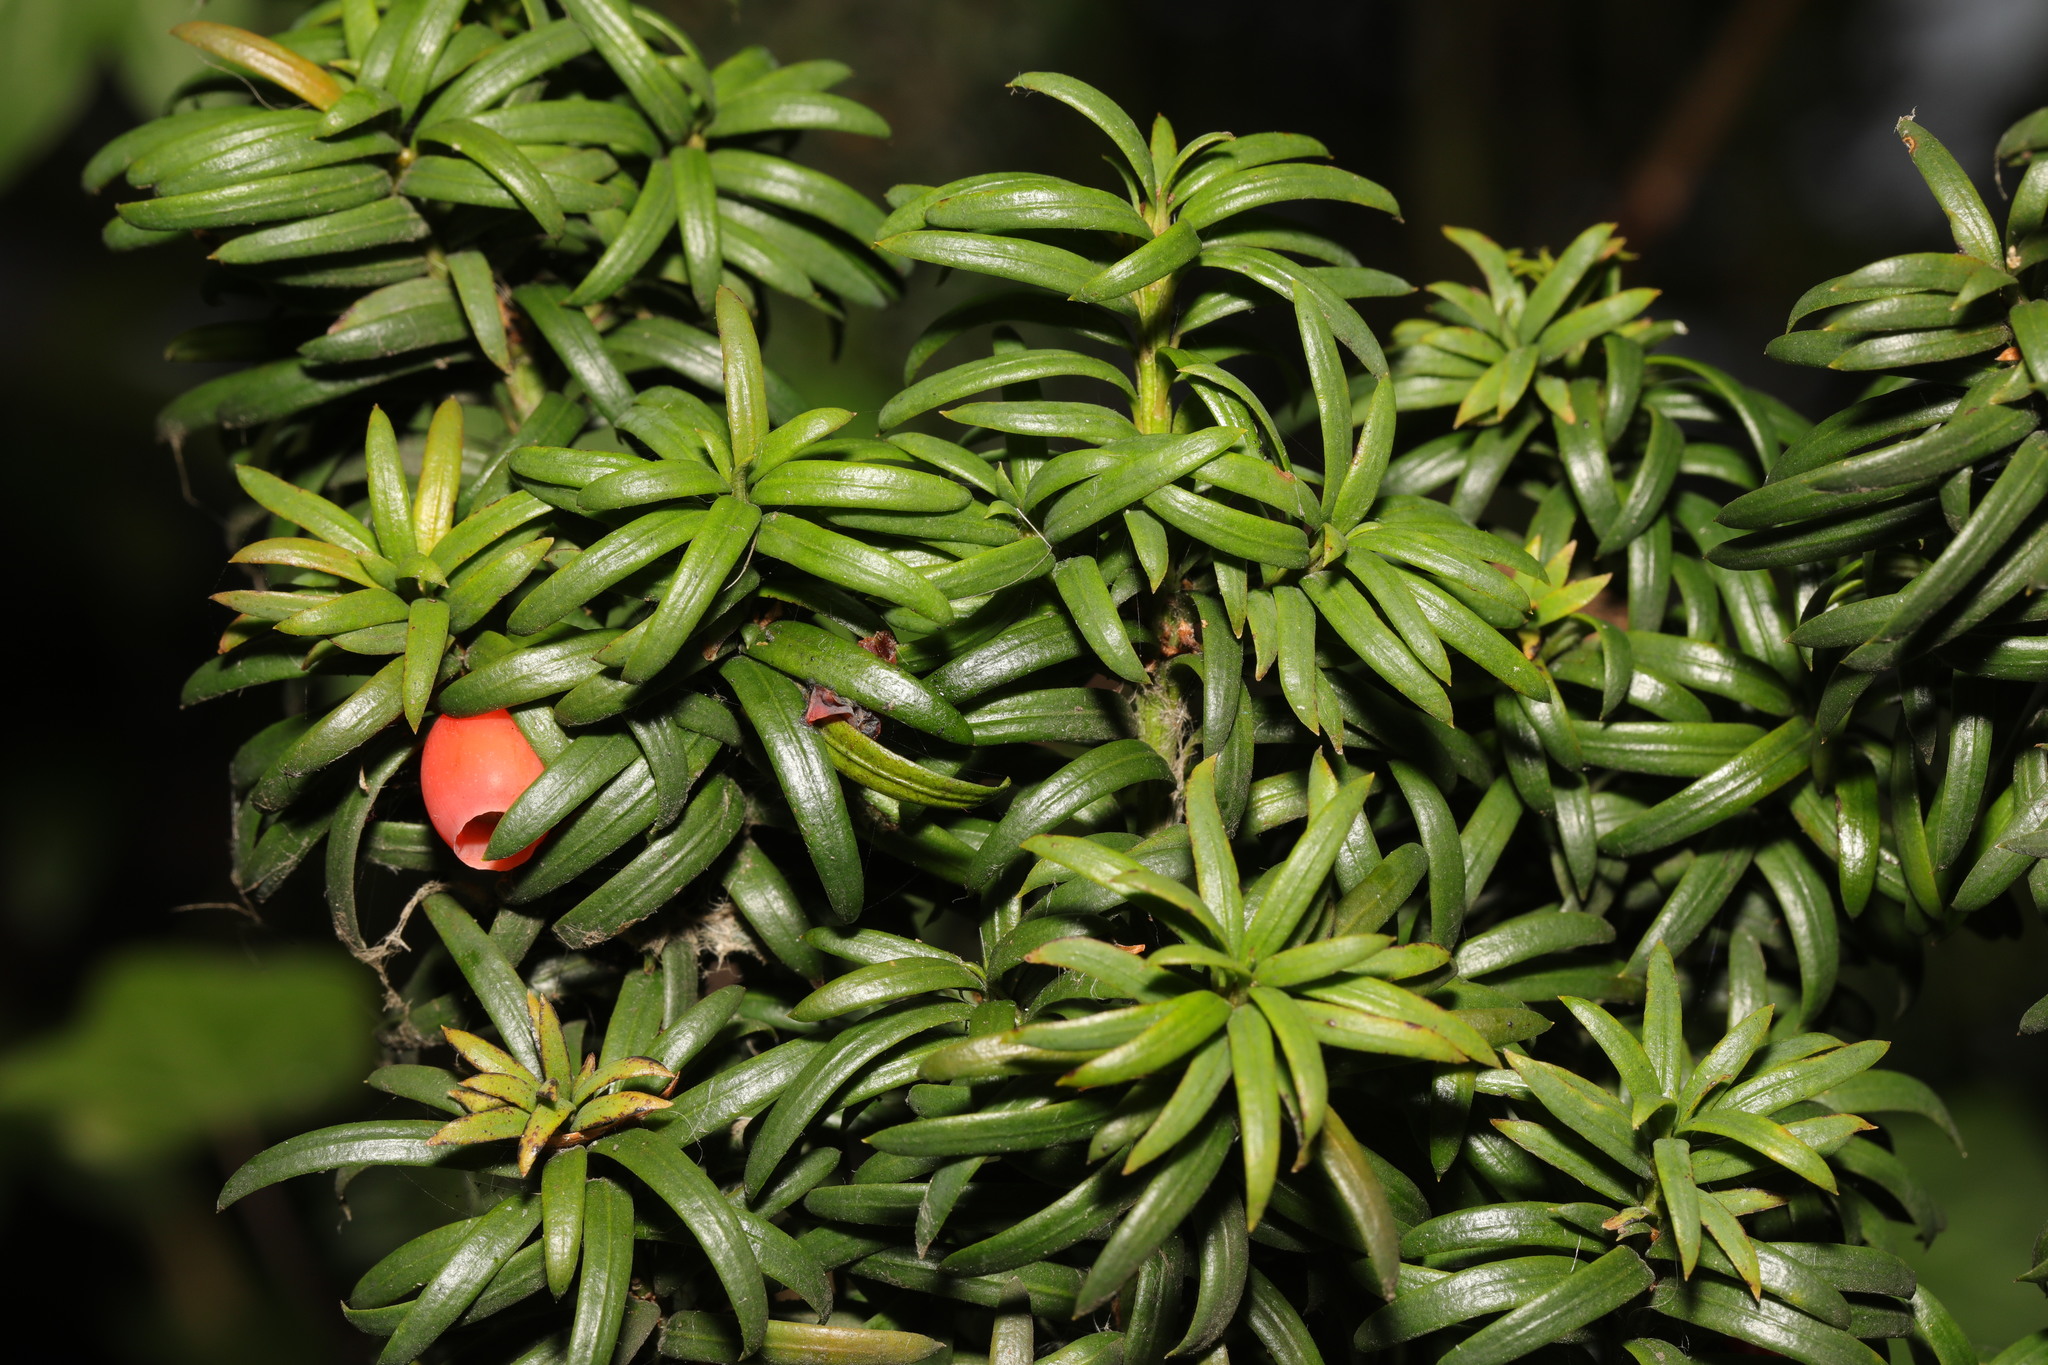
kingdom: Plantae
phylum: Tracheophyta
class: Pinopsida
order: Pinales
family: Taxaceae
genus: Taxus
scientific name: Taxus baccata
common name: Yew
